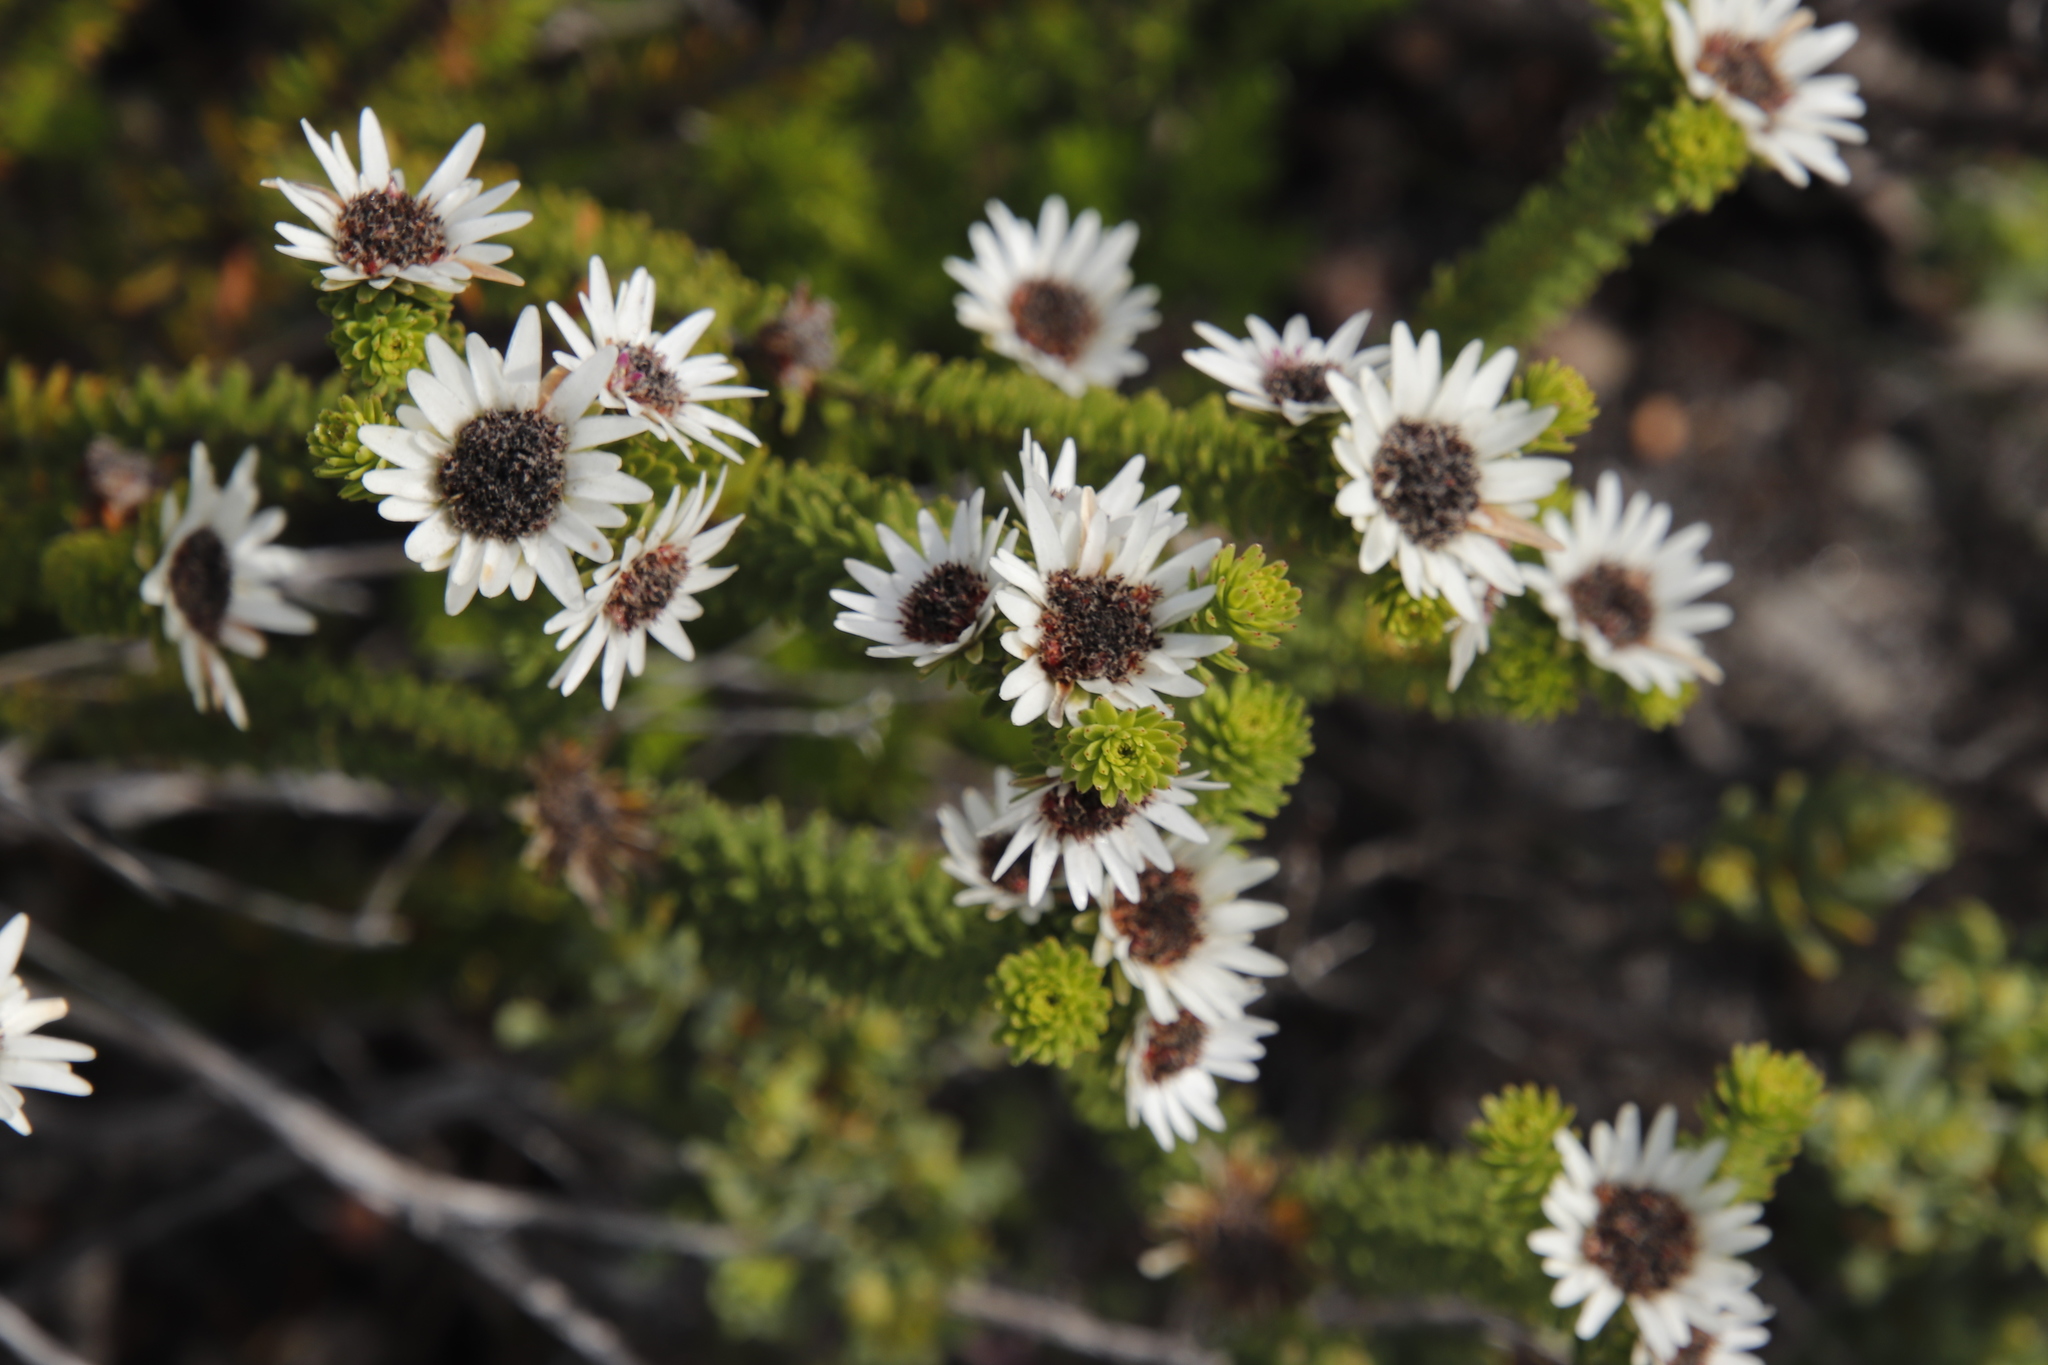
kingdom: Plantae
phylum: Tracheophyta
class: Magnoliopsida
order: Bruniales
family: Bruniaceae
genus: Staavia
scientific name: Staavia dodii
